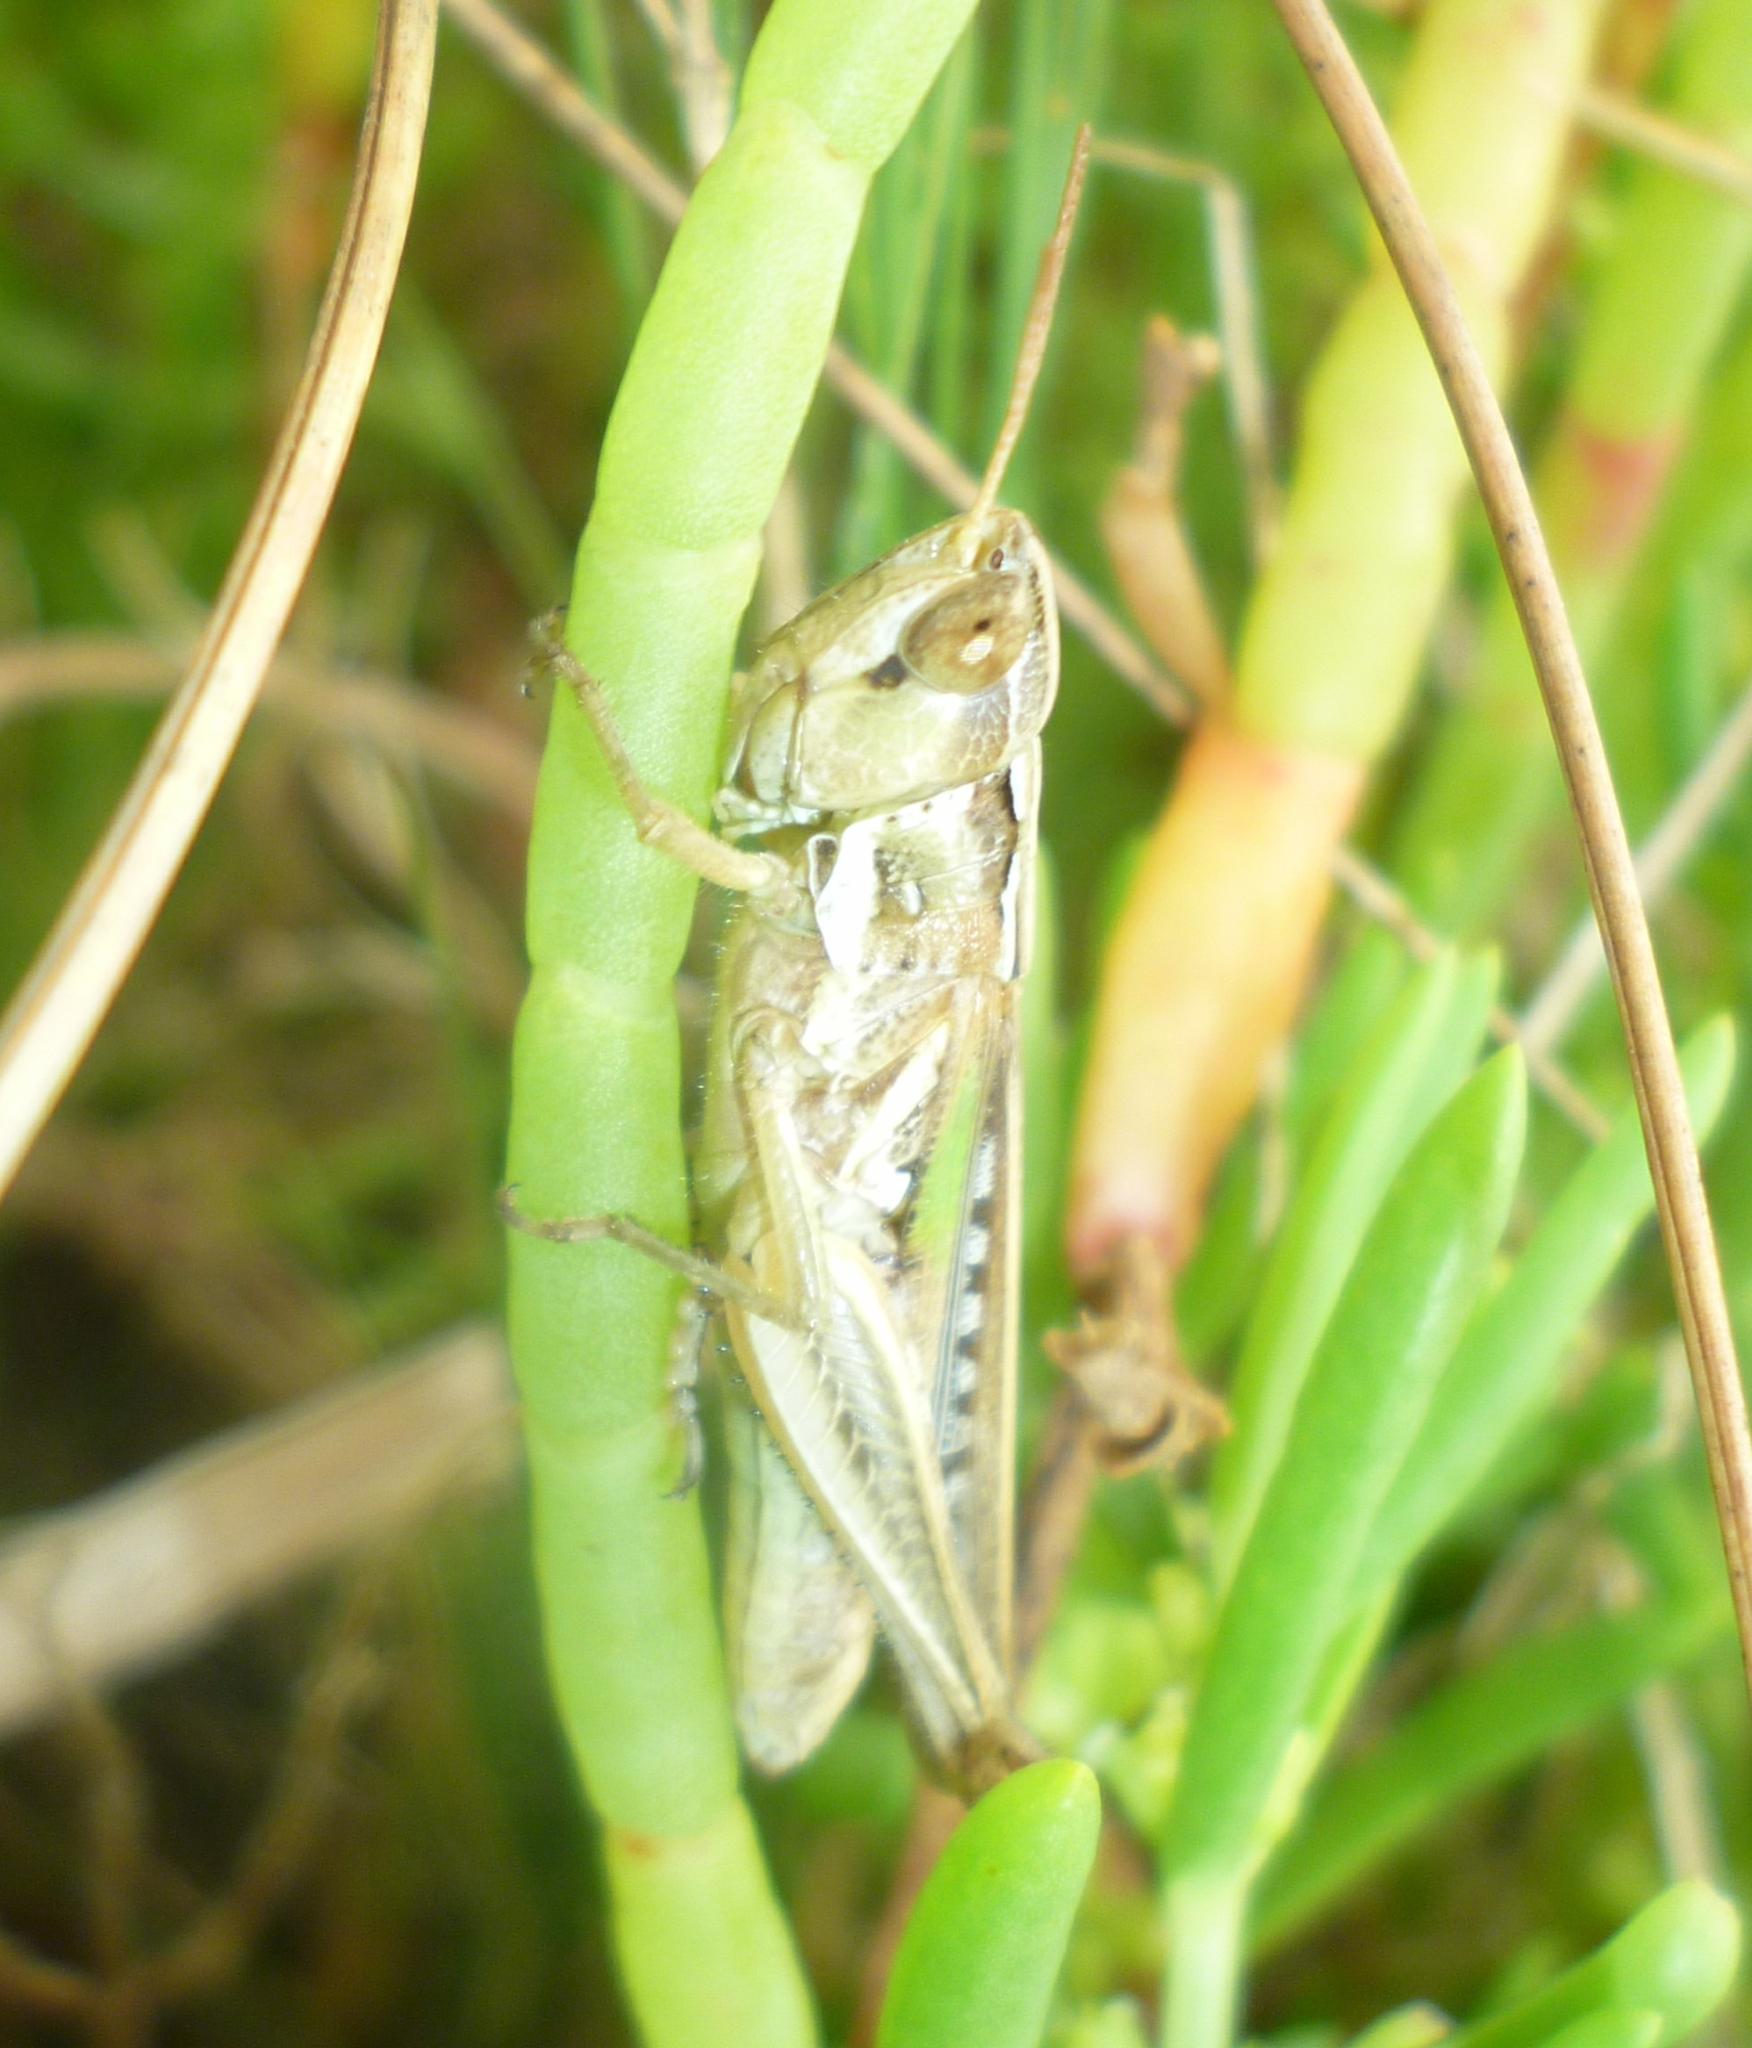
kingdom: Animalia
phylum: Arthropoda
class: Insecta
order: Orthoptera
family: Acrididae
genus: Orphulella
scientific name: Orphulella pelidna
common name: Spotted-wing grasshopper
